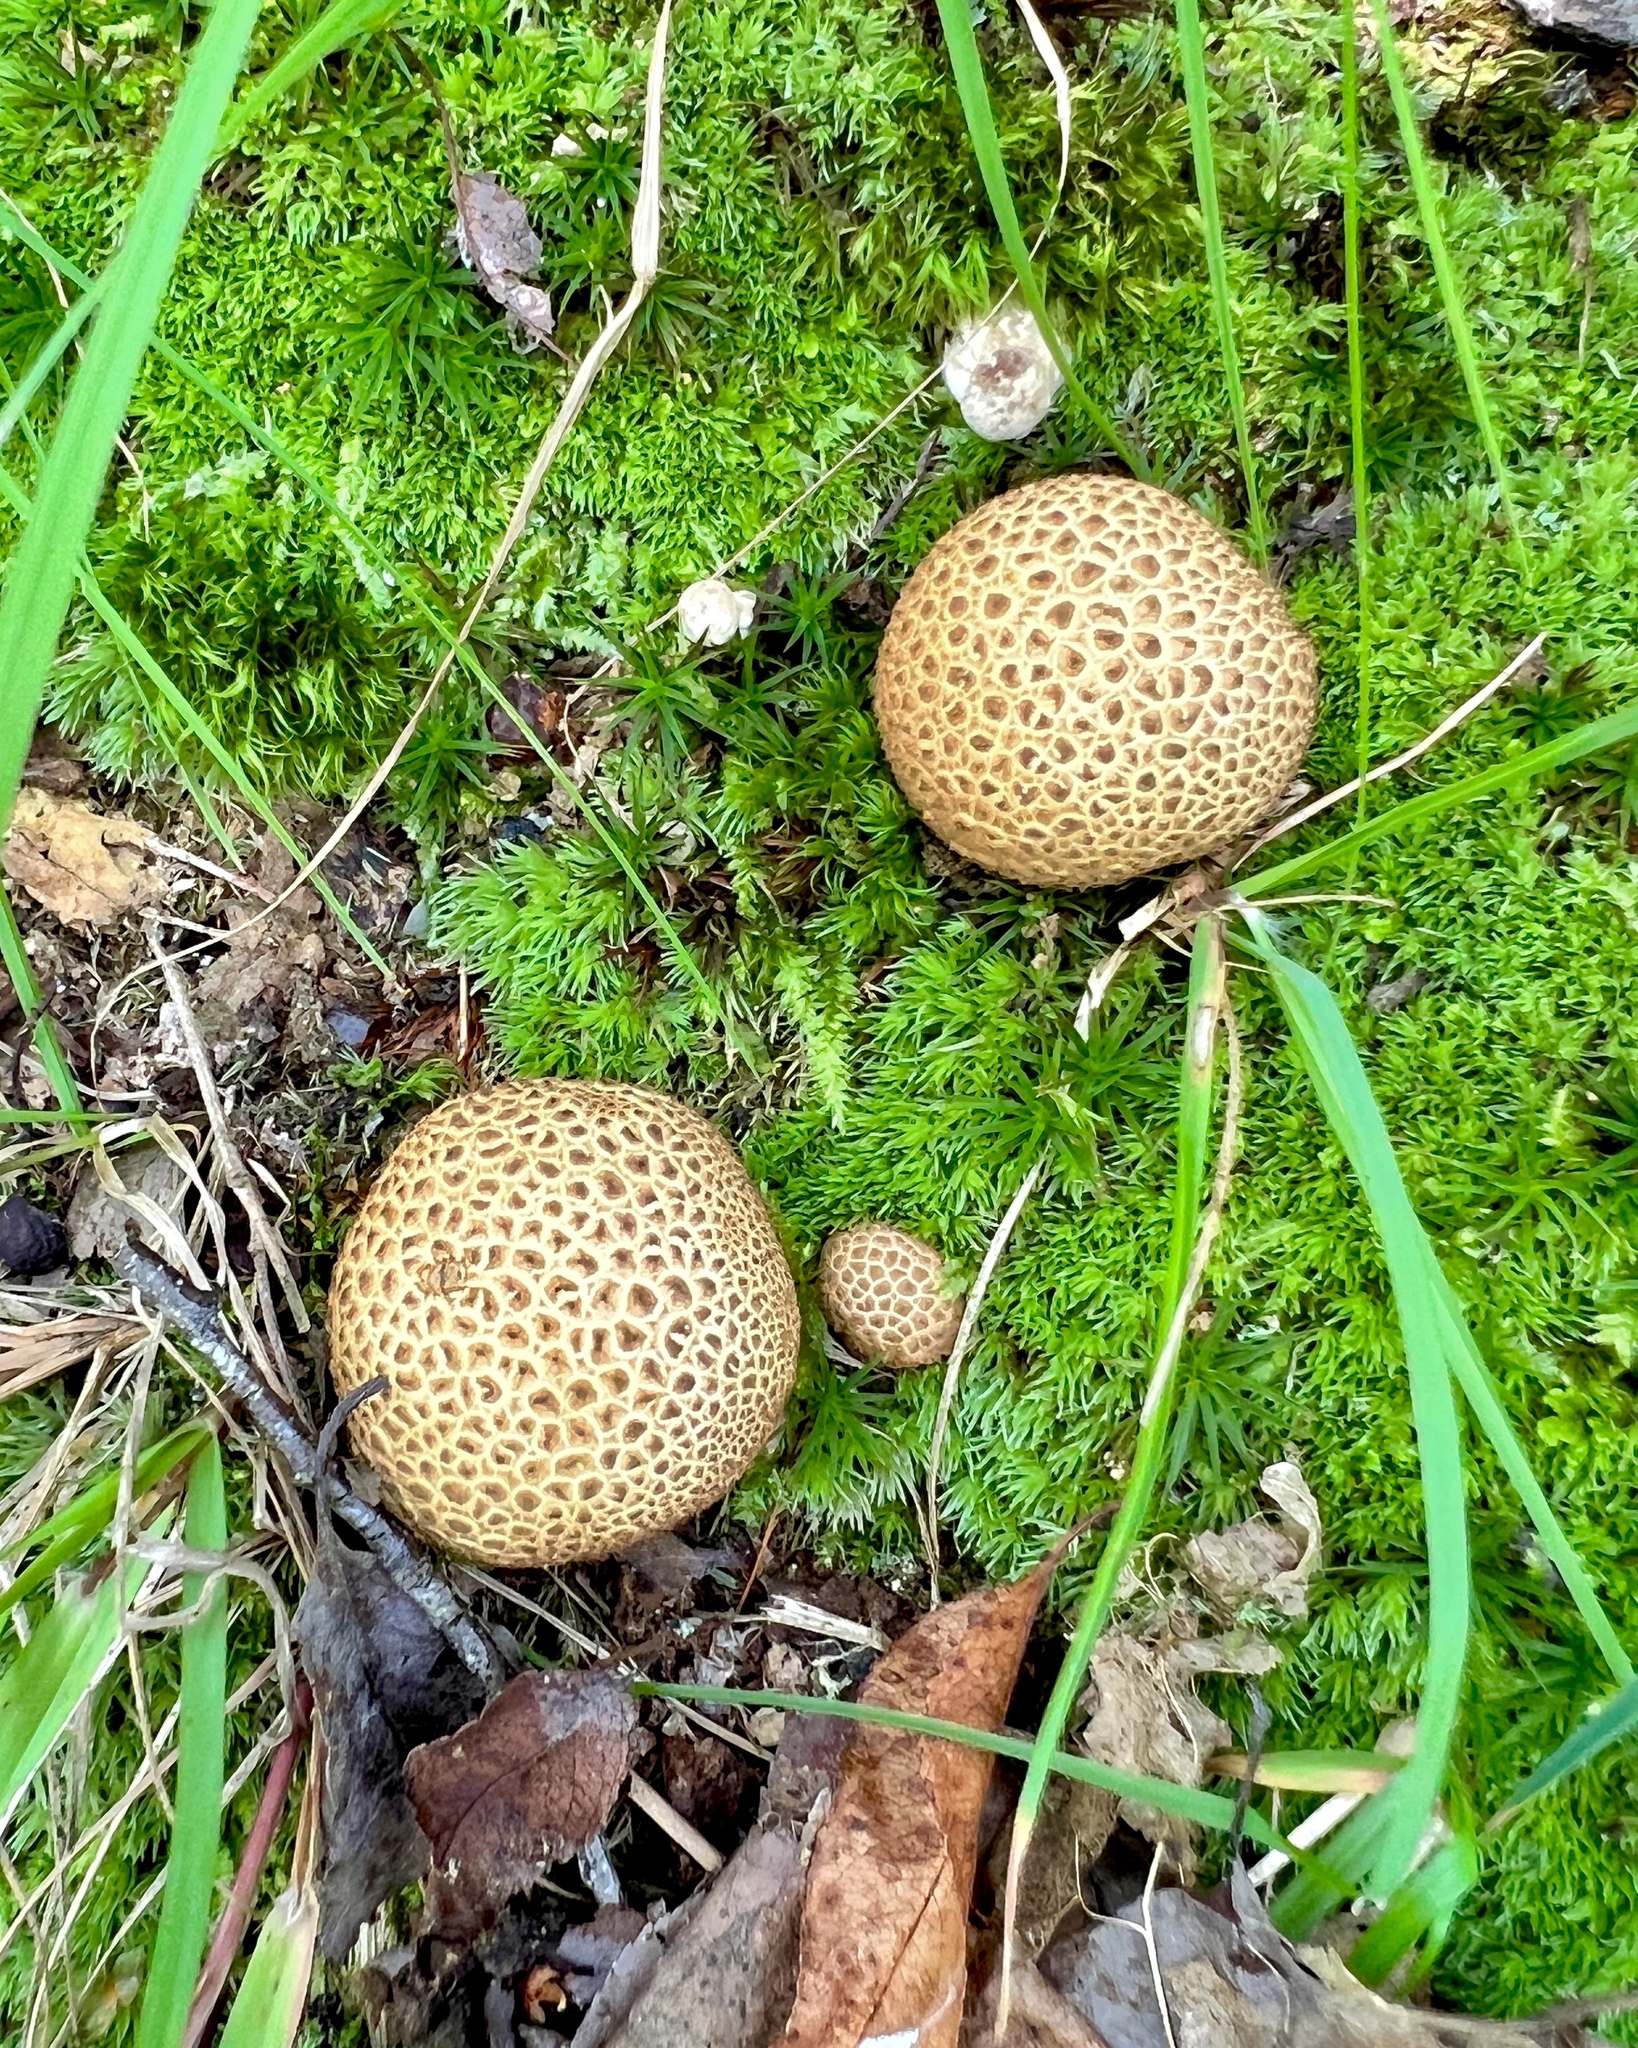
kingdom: Fungi
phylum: Basidiomycota
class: Agaricomycetes
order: Boletales
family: Sclerodermataceae
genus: Scleroderma
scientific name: Scleroderma citrinum
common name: Common earthball
